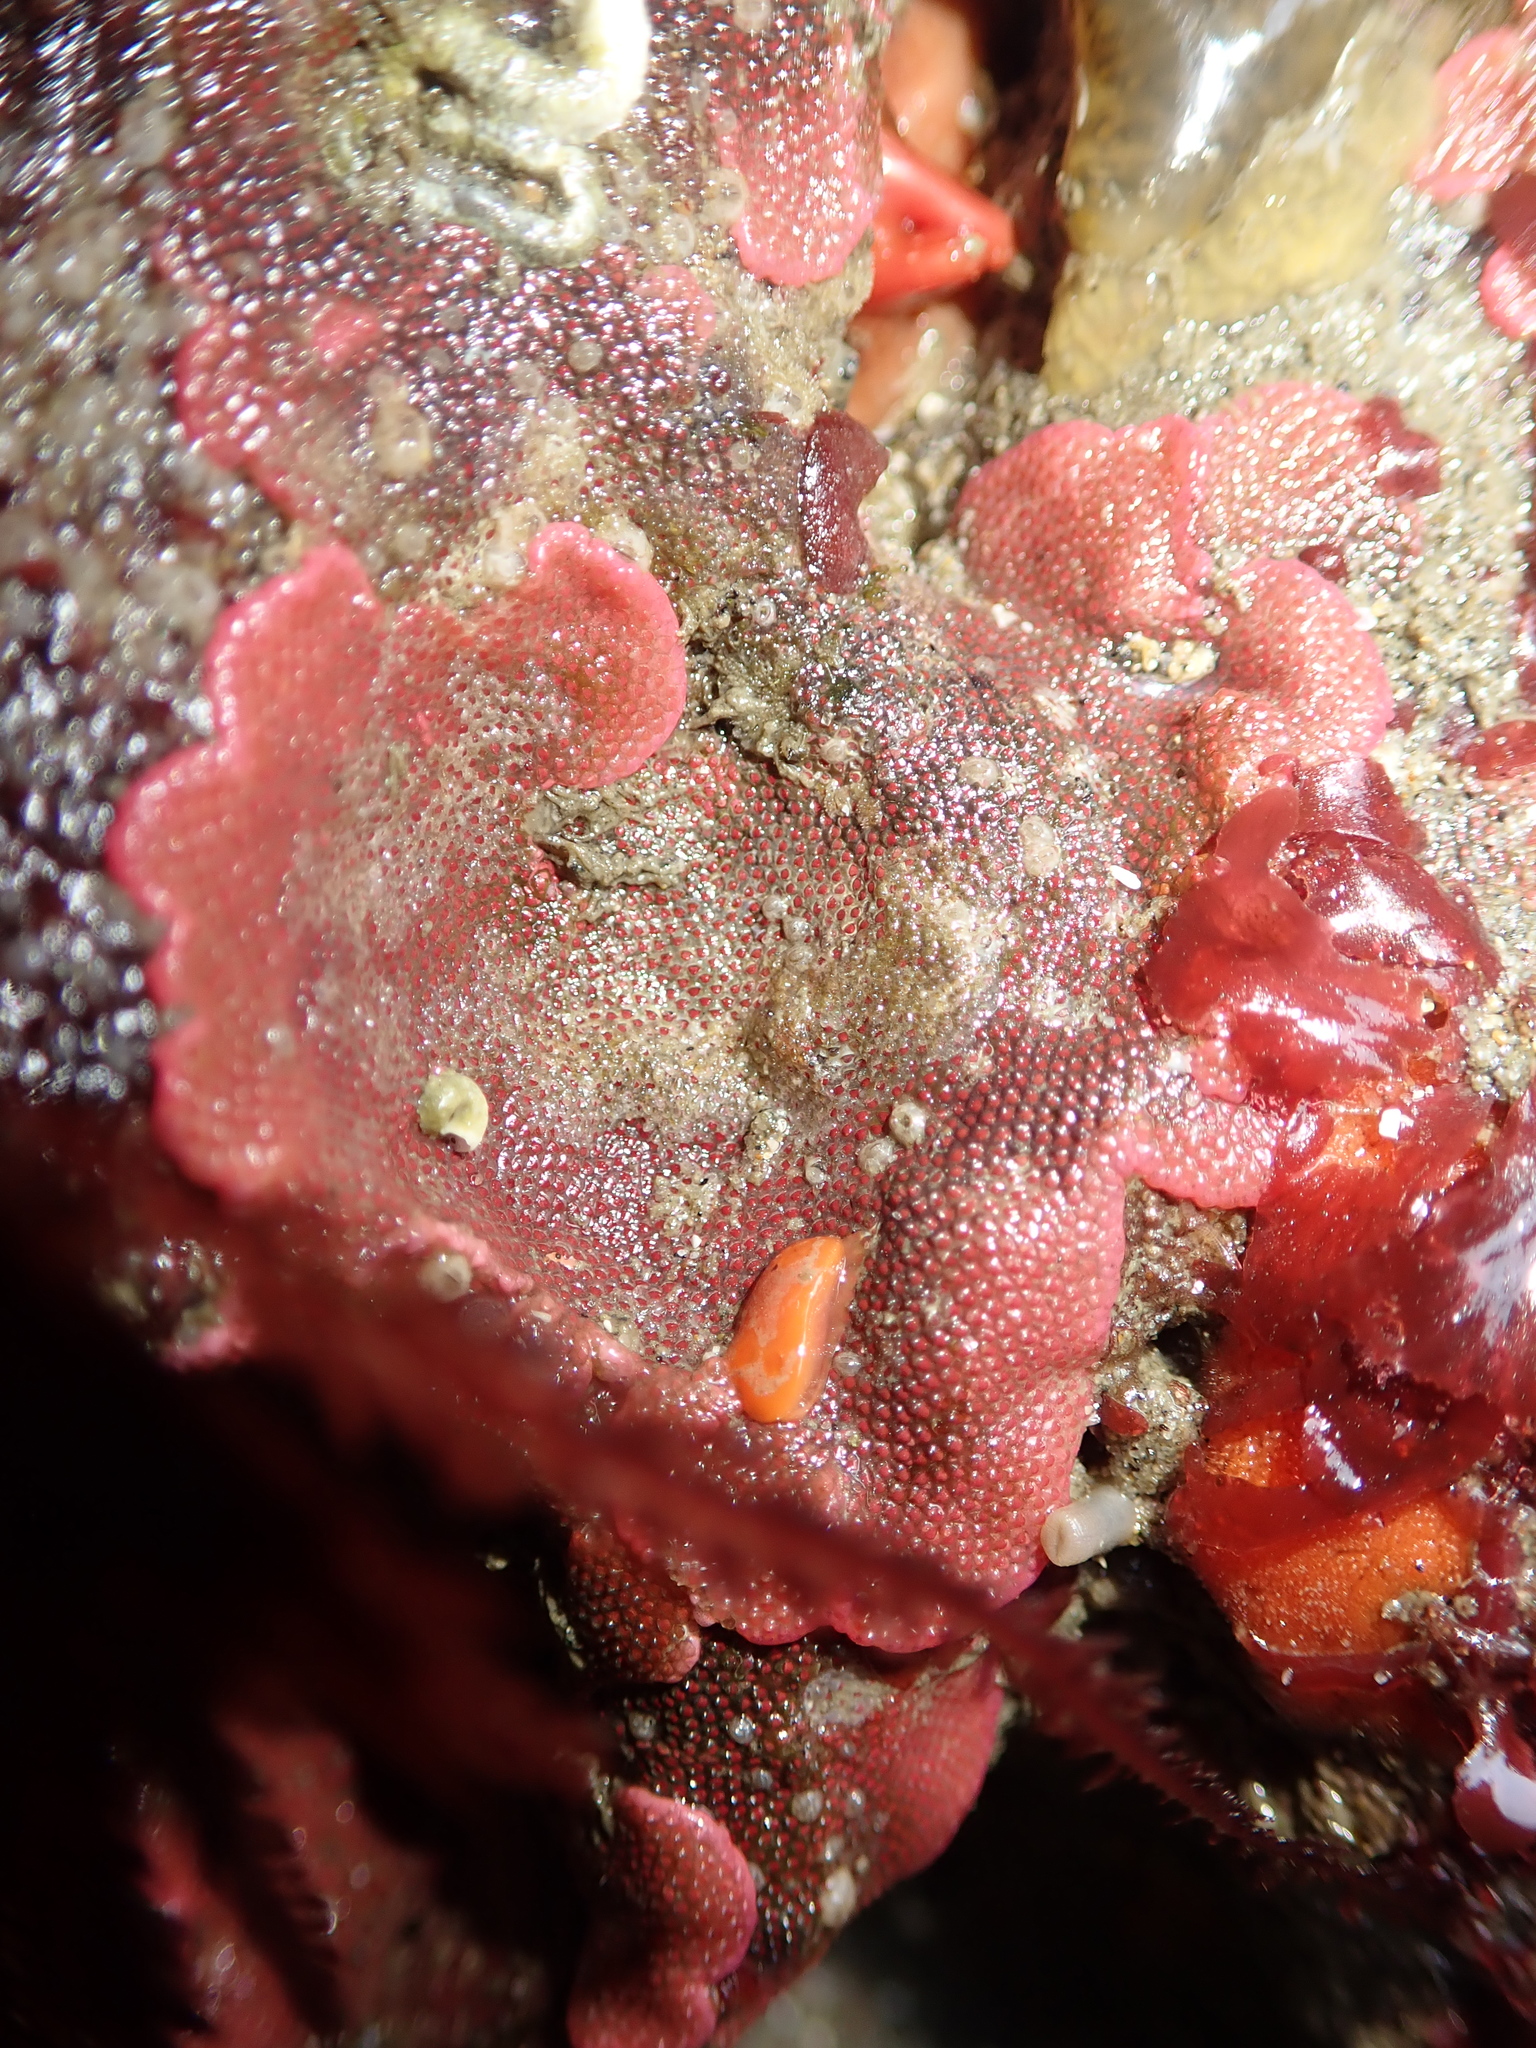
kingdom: Animalia
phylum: Bryozoa
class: Gymnolaemata
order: Cheilostomatida
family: Eurystomellidae
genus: Integripelta
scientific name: Integripelta bilabiata
